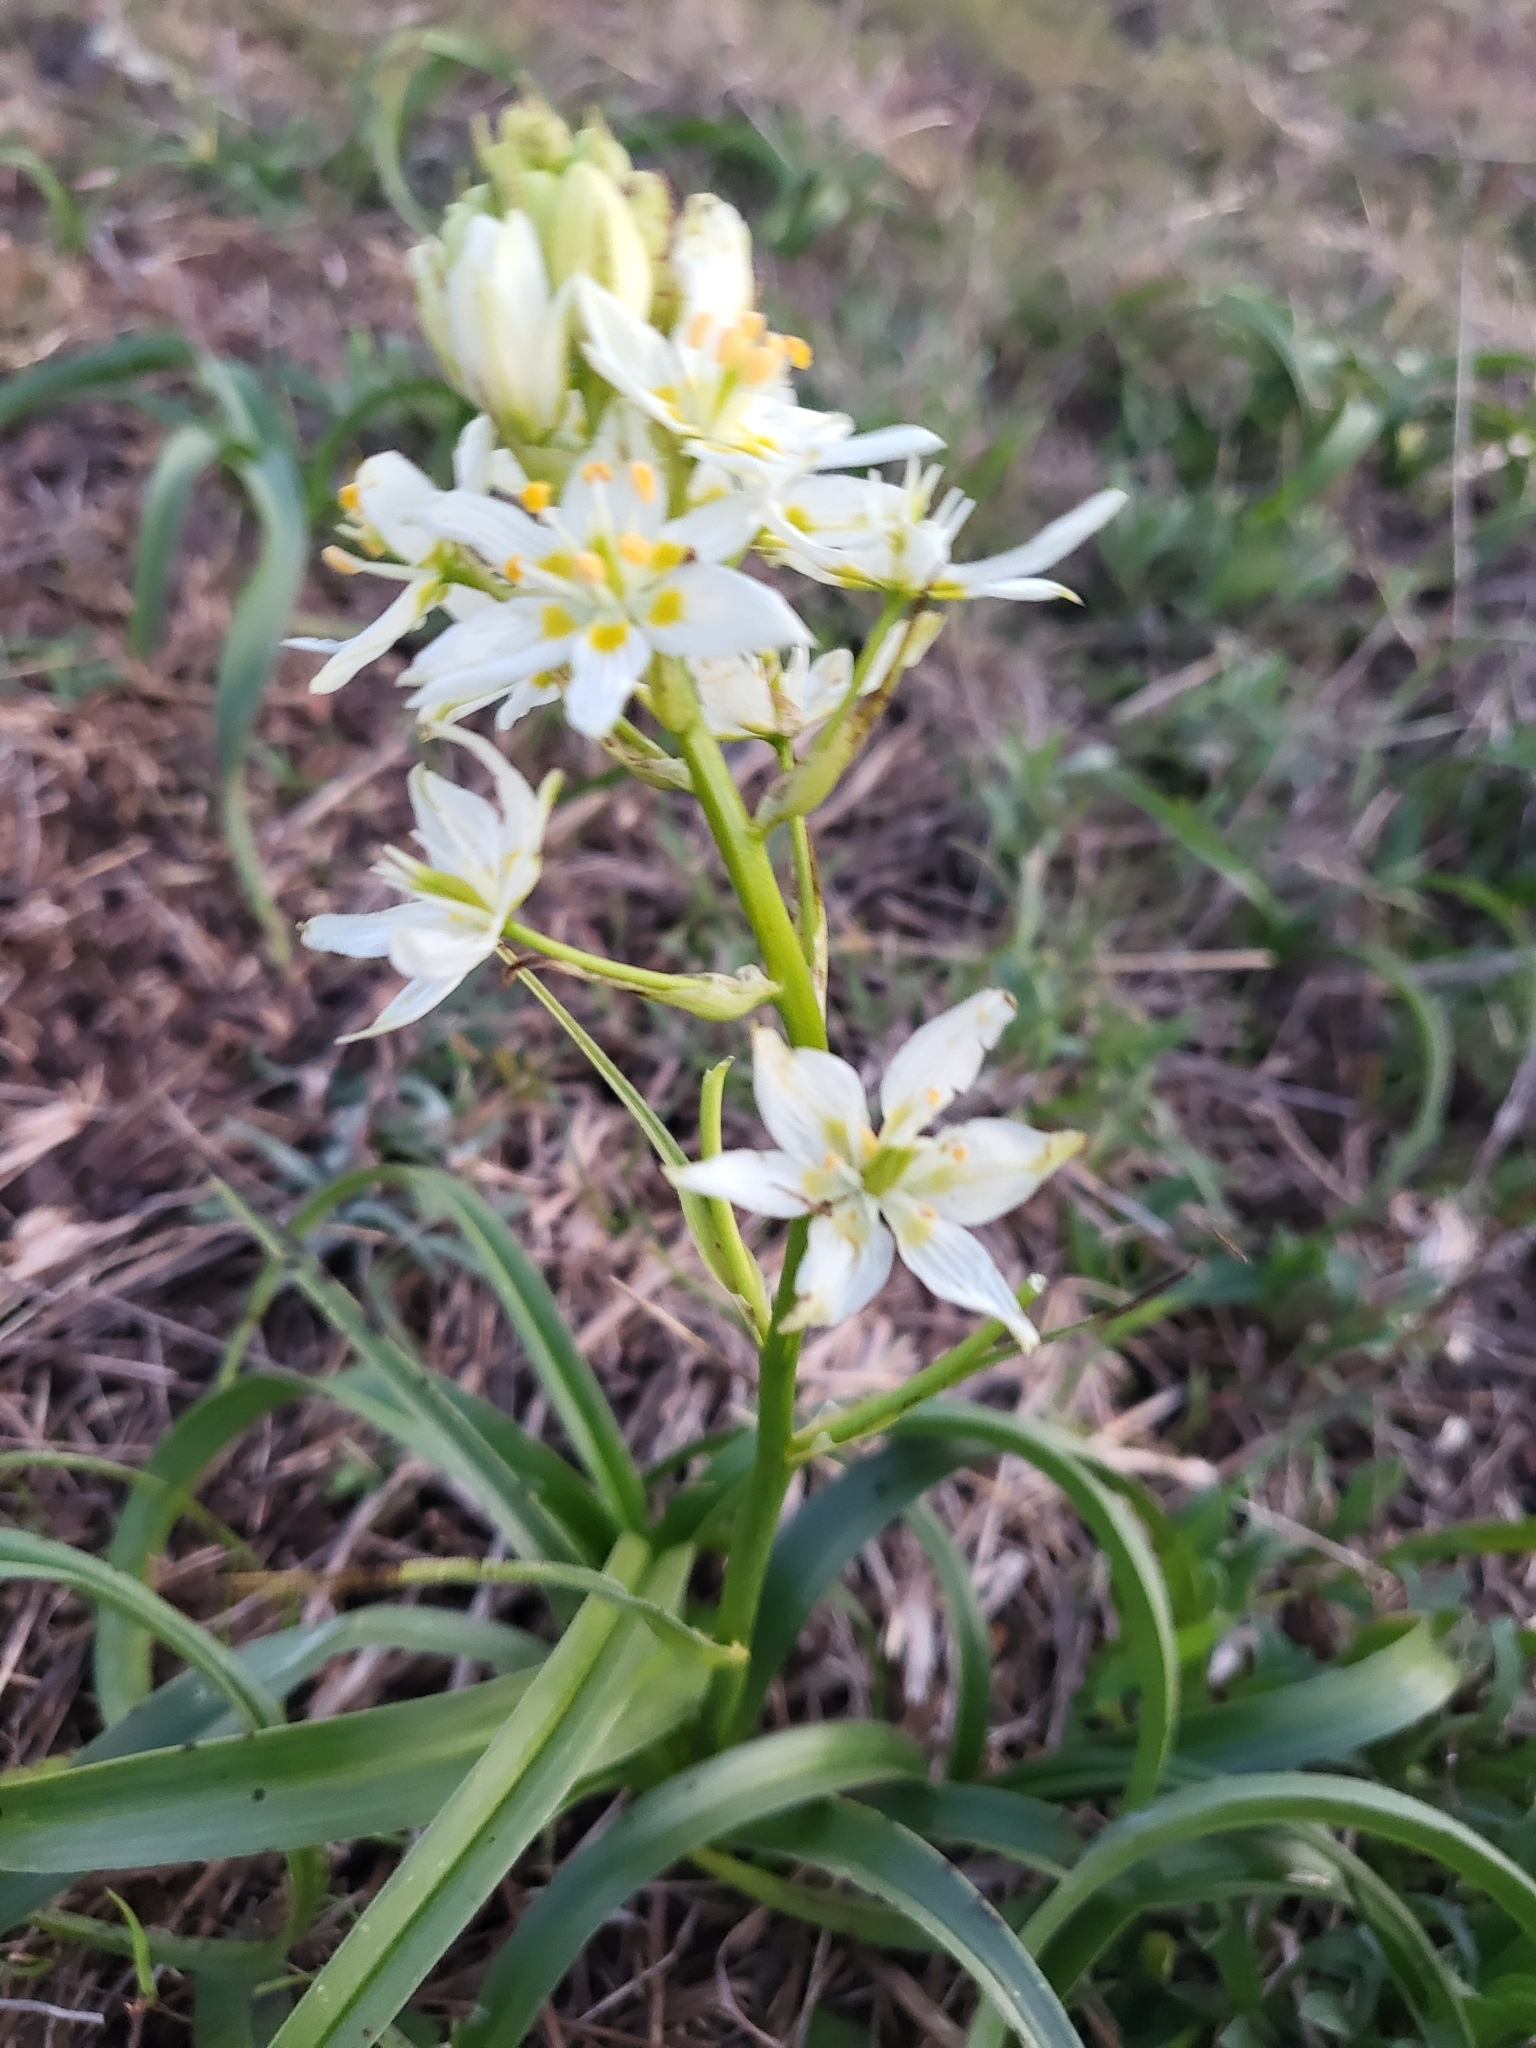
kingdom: Plantae
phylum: Tracheophyta
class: Liliopsida
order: Liliales
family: Melanthiaceae
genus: Toxicoscordion
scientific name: Toxicoscordion fremontii
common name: Fremont's death camas
